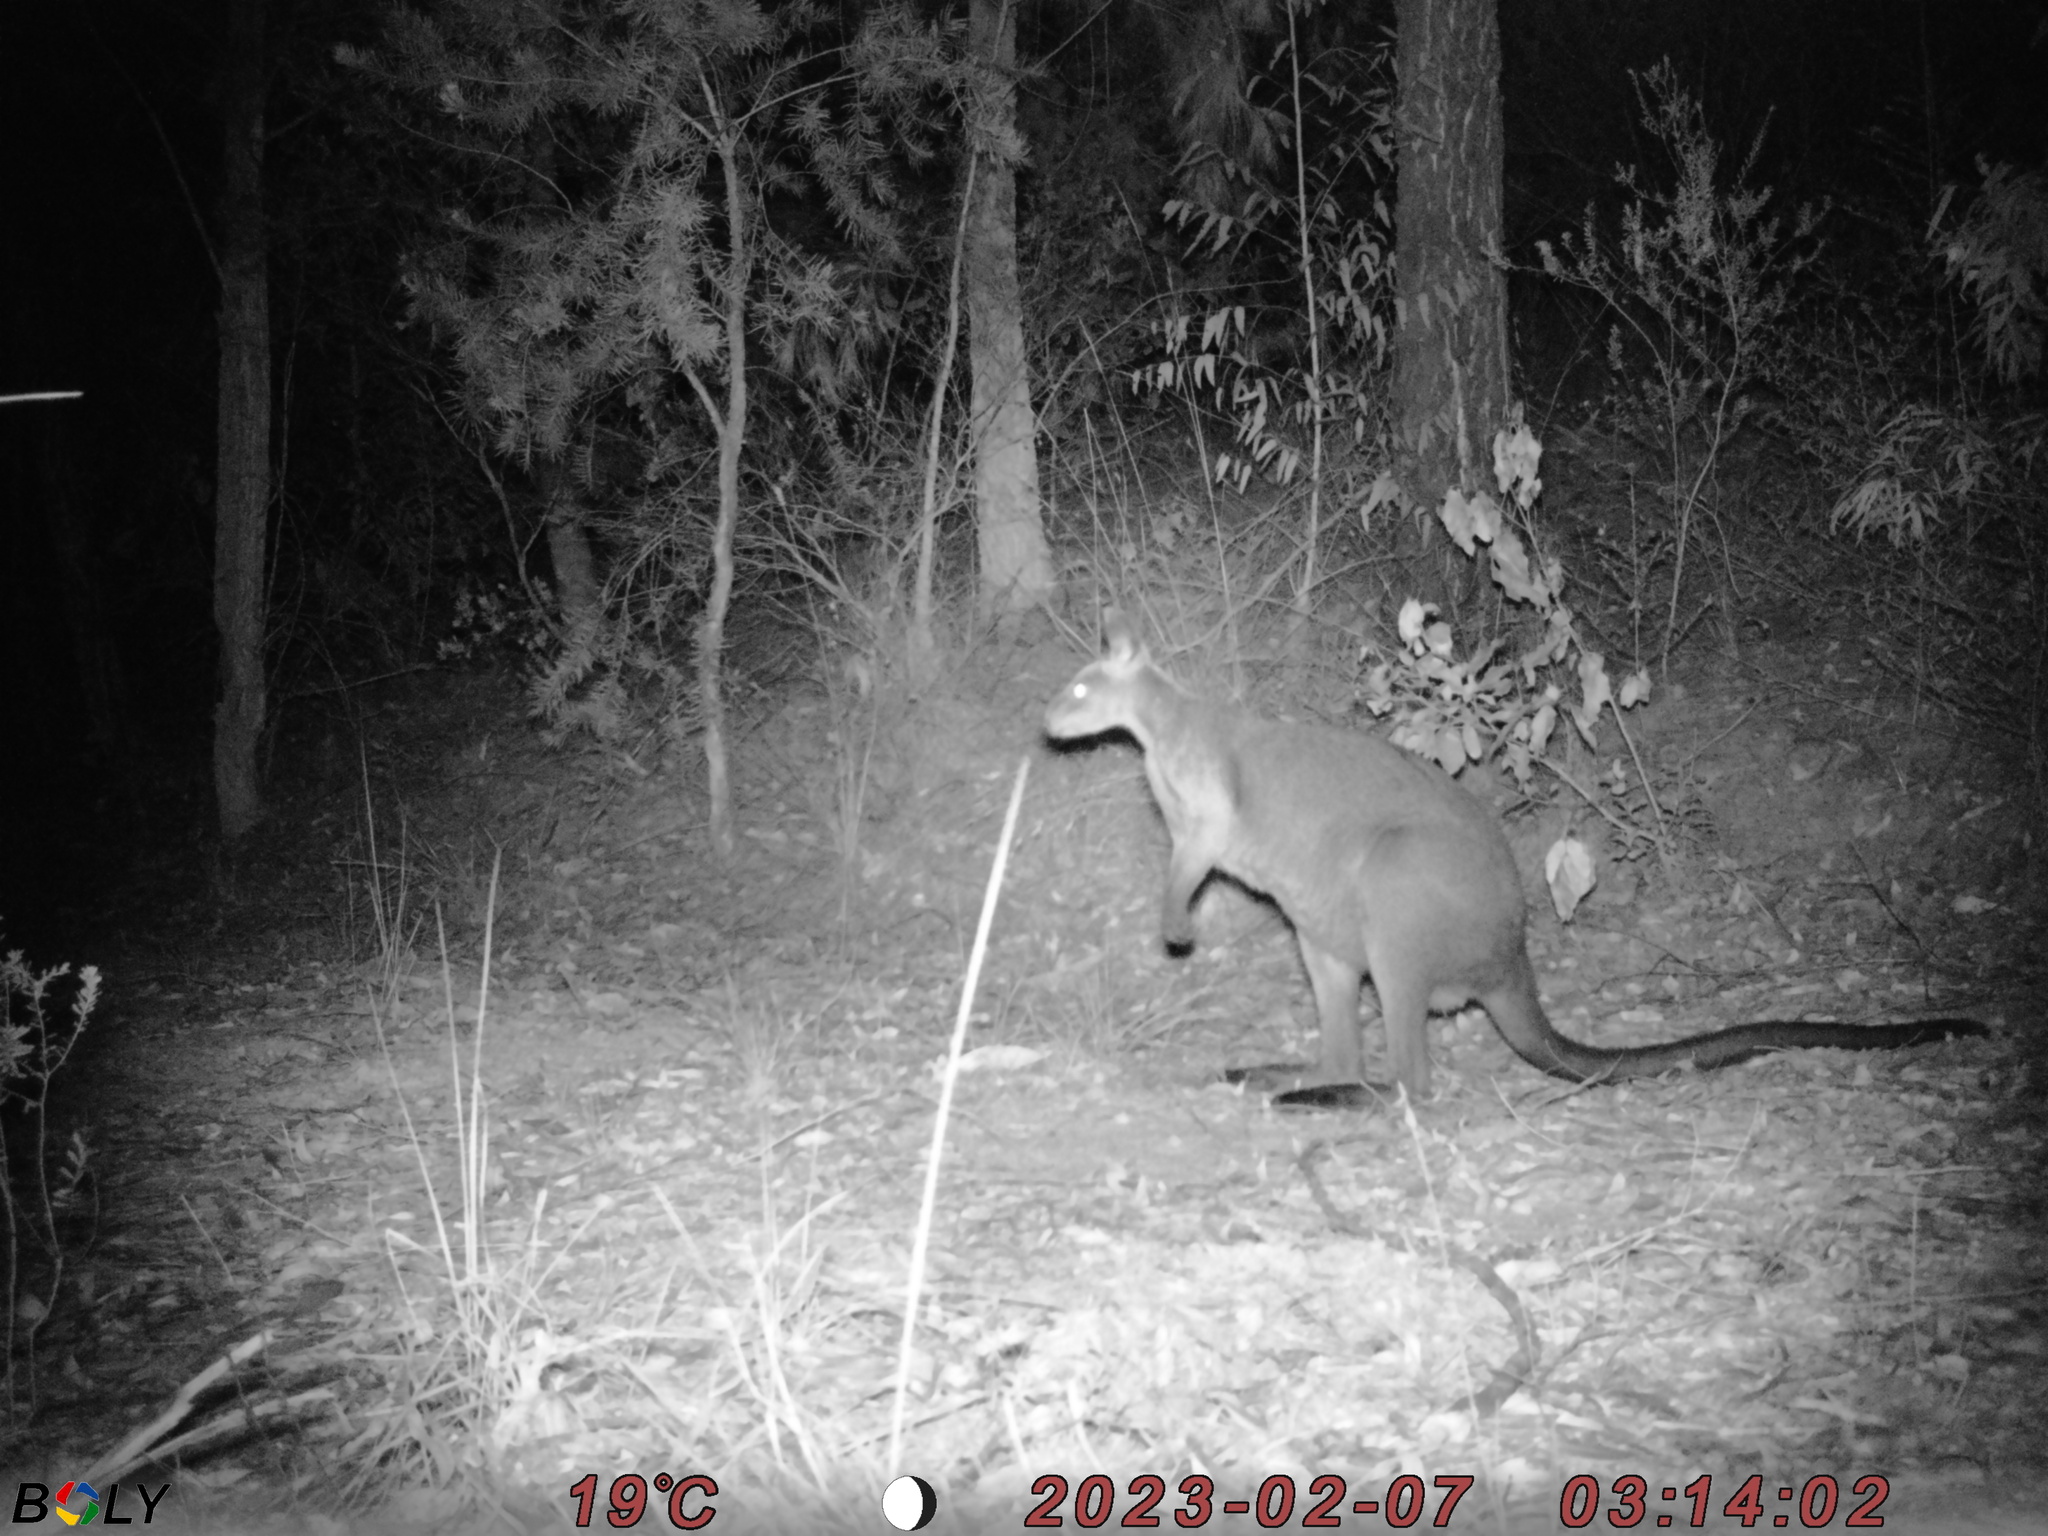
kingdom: Animalia
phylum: Chordata
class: Mammalia
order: Diprotodontia
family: Macropodidae
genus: Wallabia
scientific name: Wallabia bicolor
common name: Swamp wallaby
